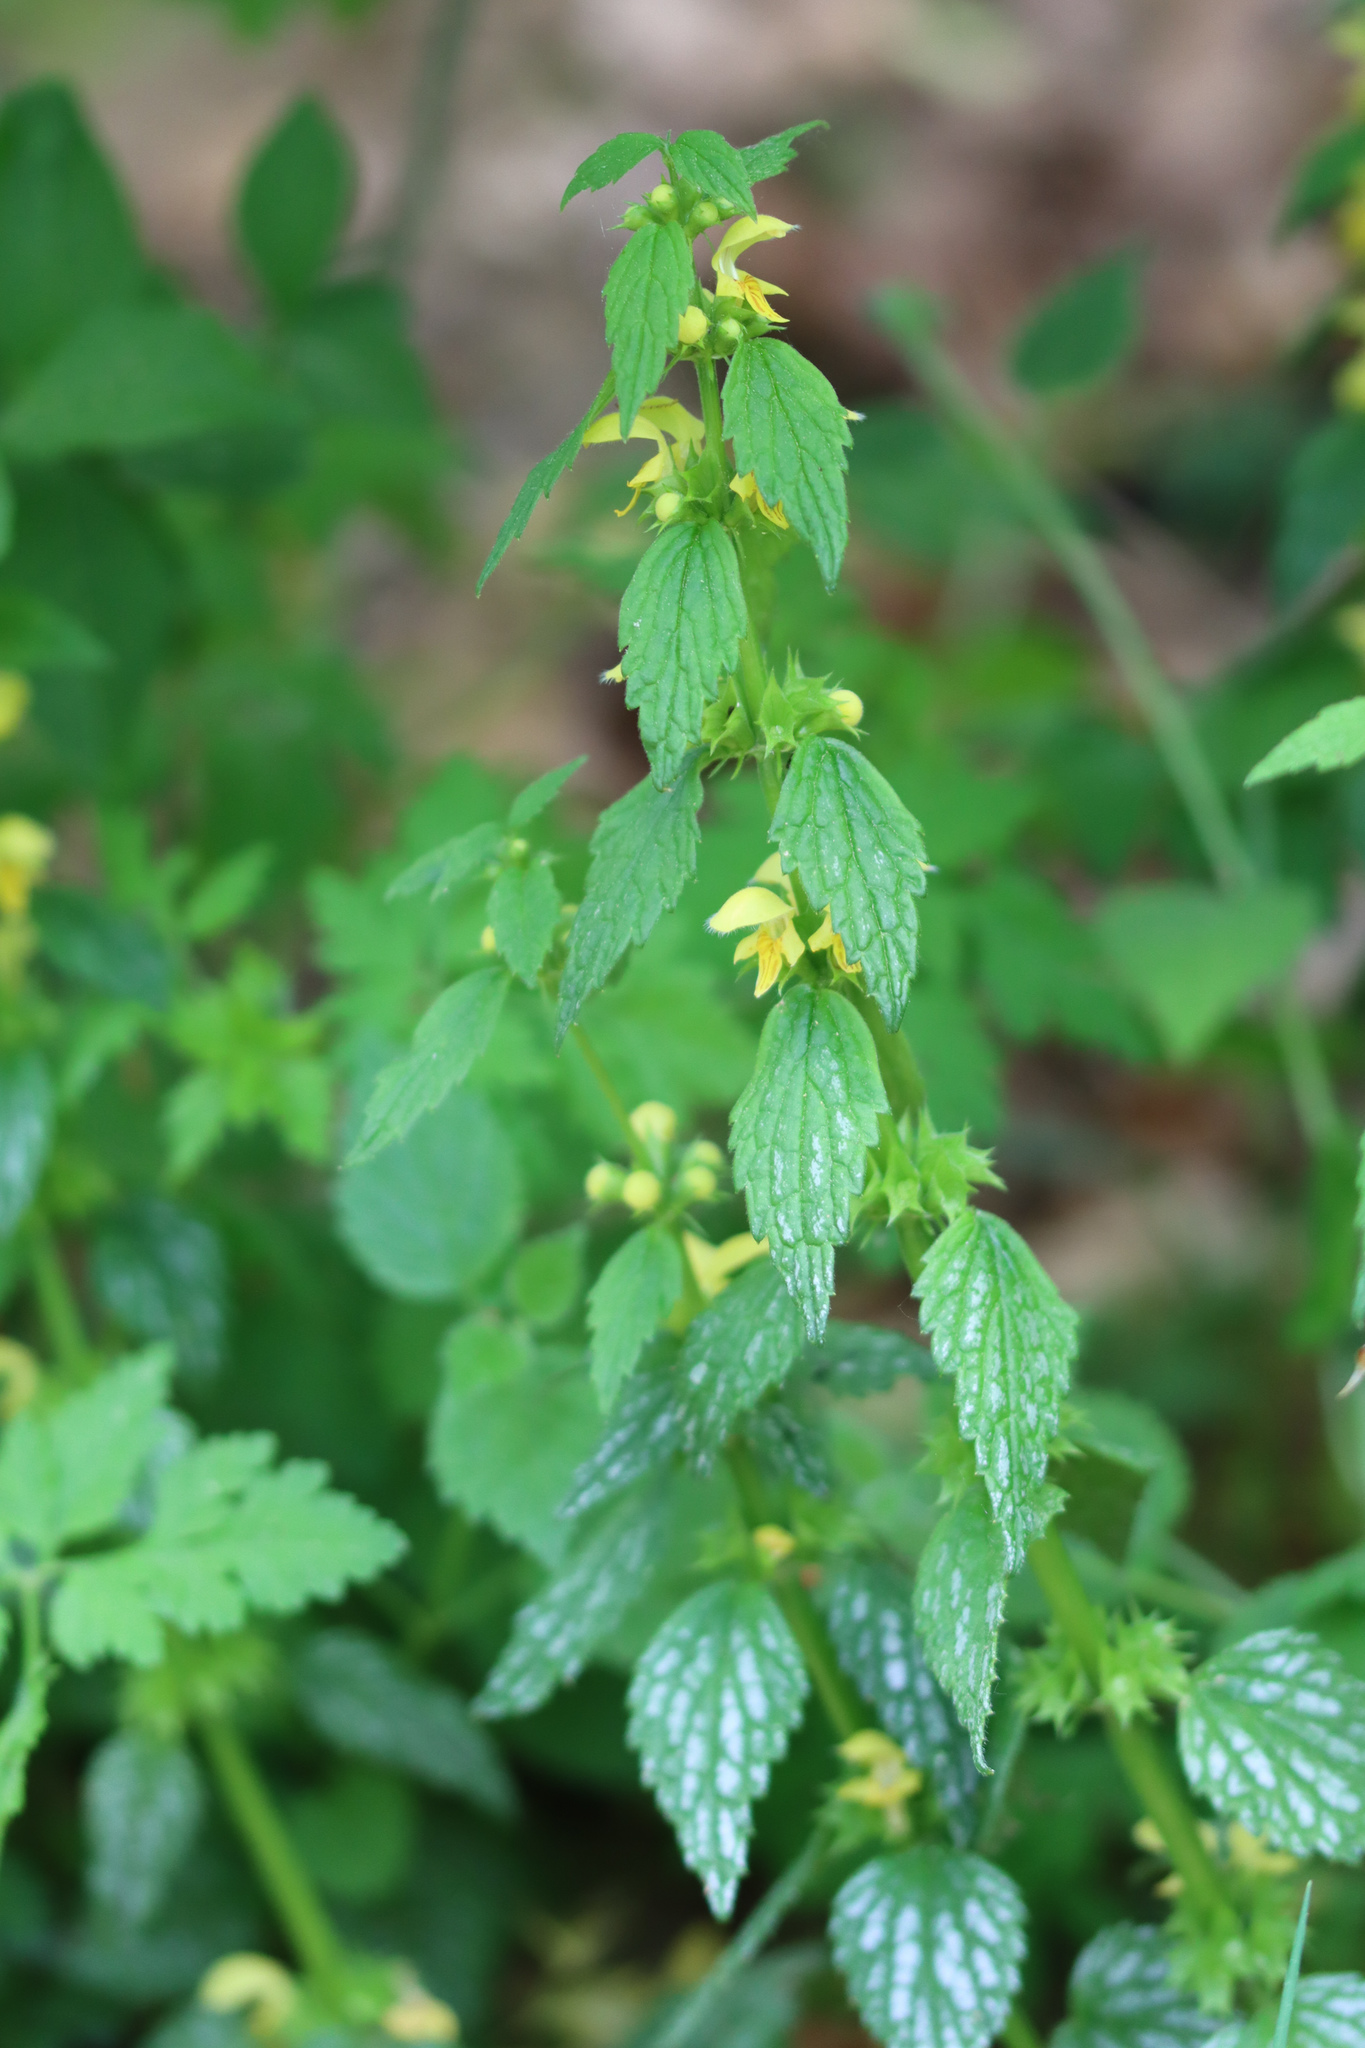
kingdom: Plantae
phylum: Tracheophyta
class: Magnoliopsida
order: Lamiales
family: Lamiaceae
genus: Lamium
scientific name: Lamium galeobdolon
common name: Yellow archangel
